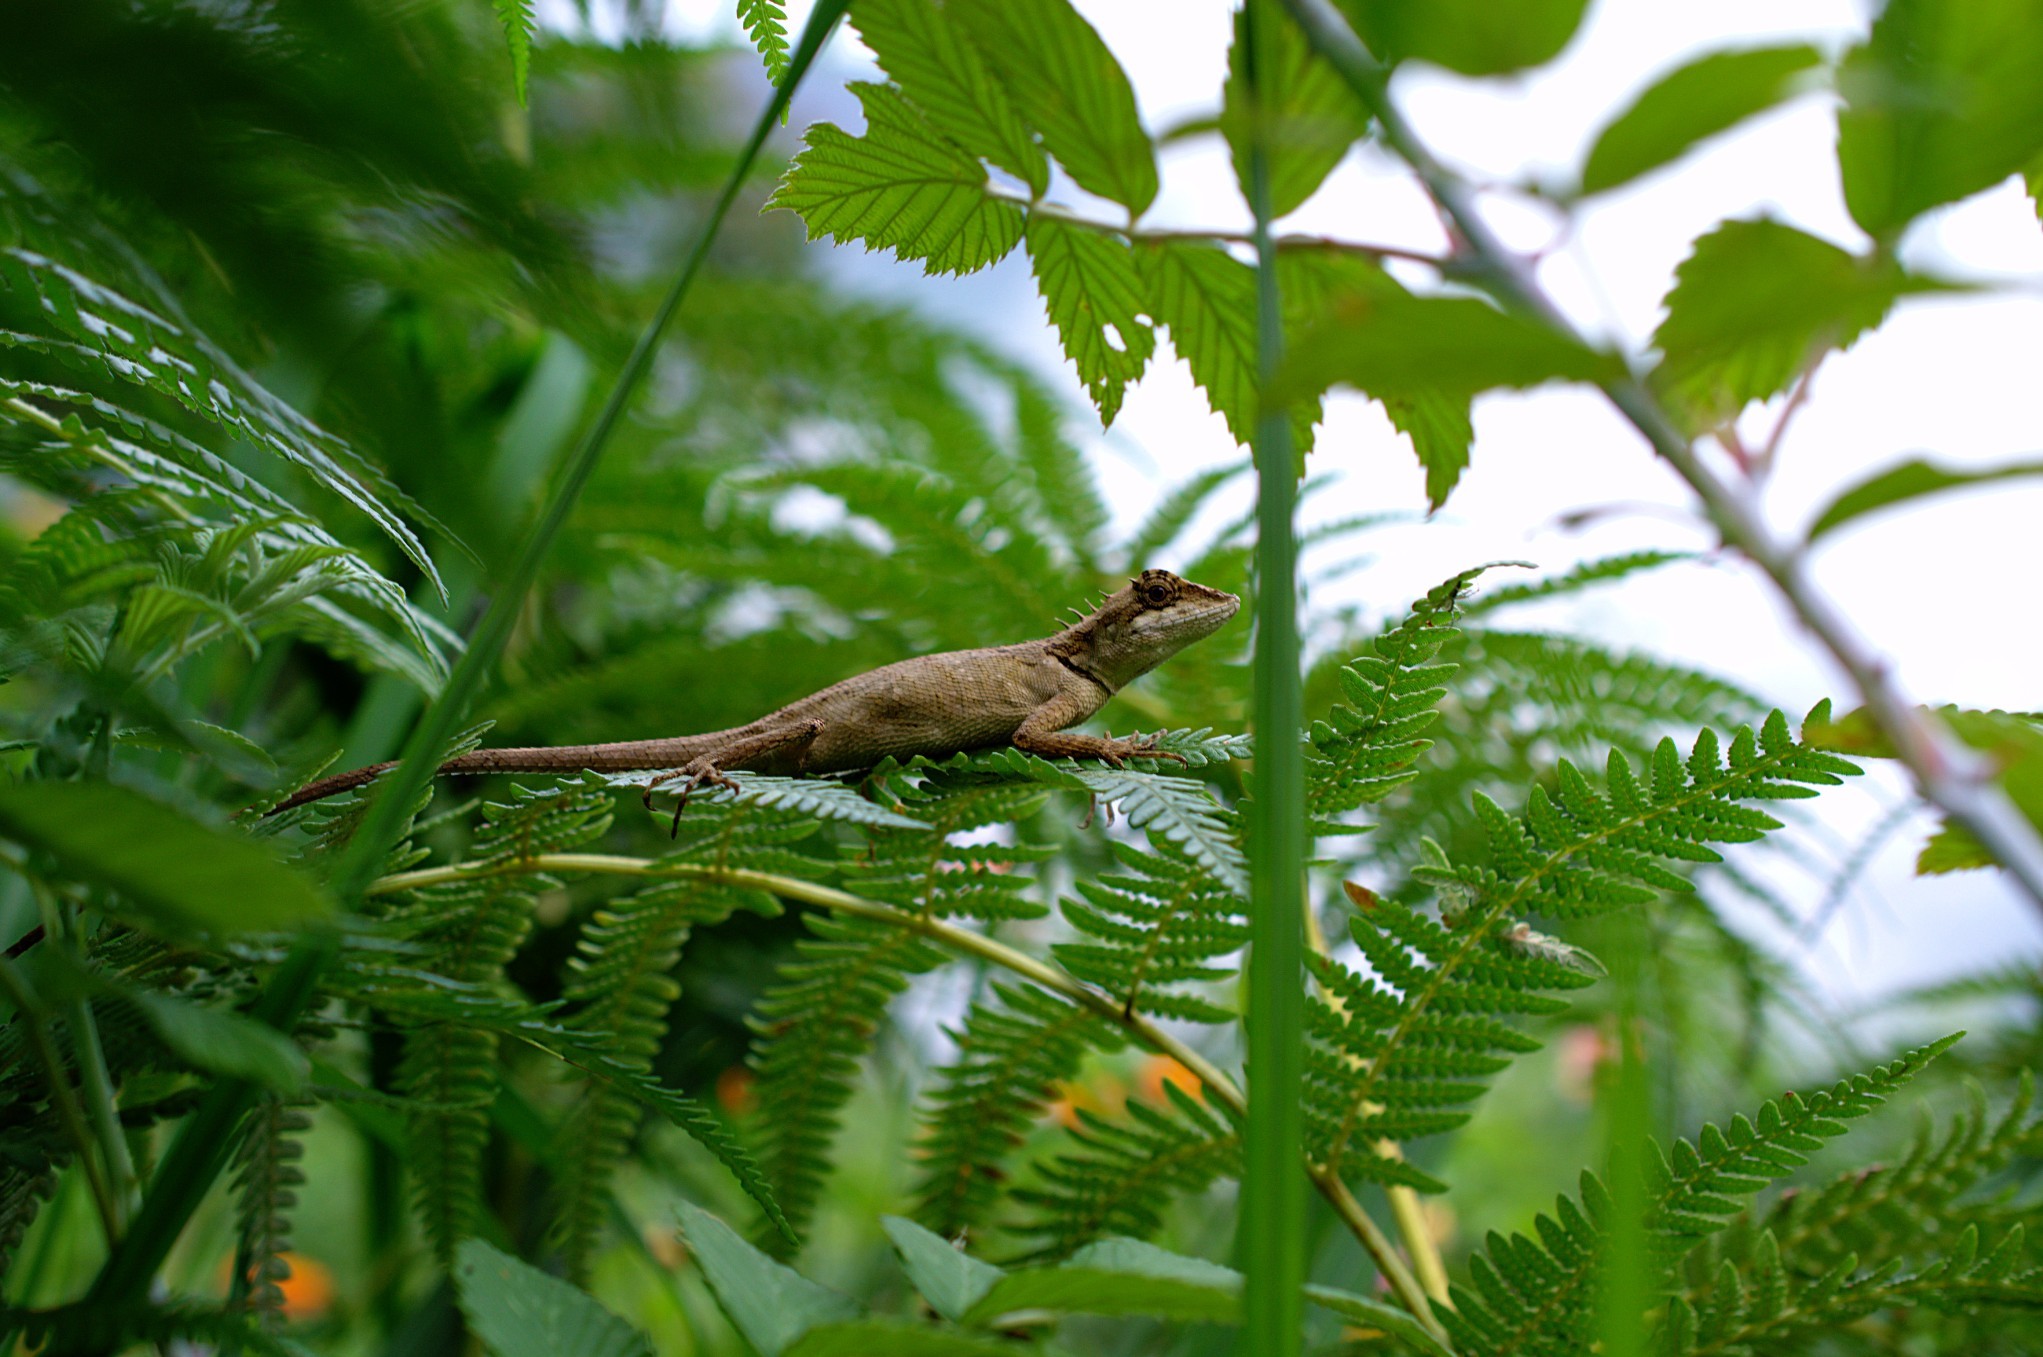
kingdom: Animalia
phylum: Chordata
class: Squamata
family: Agamidae
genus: Monilesaurus
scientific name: Monilesaurus ellioti
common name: Elliot's forest lizard
